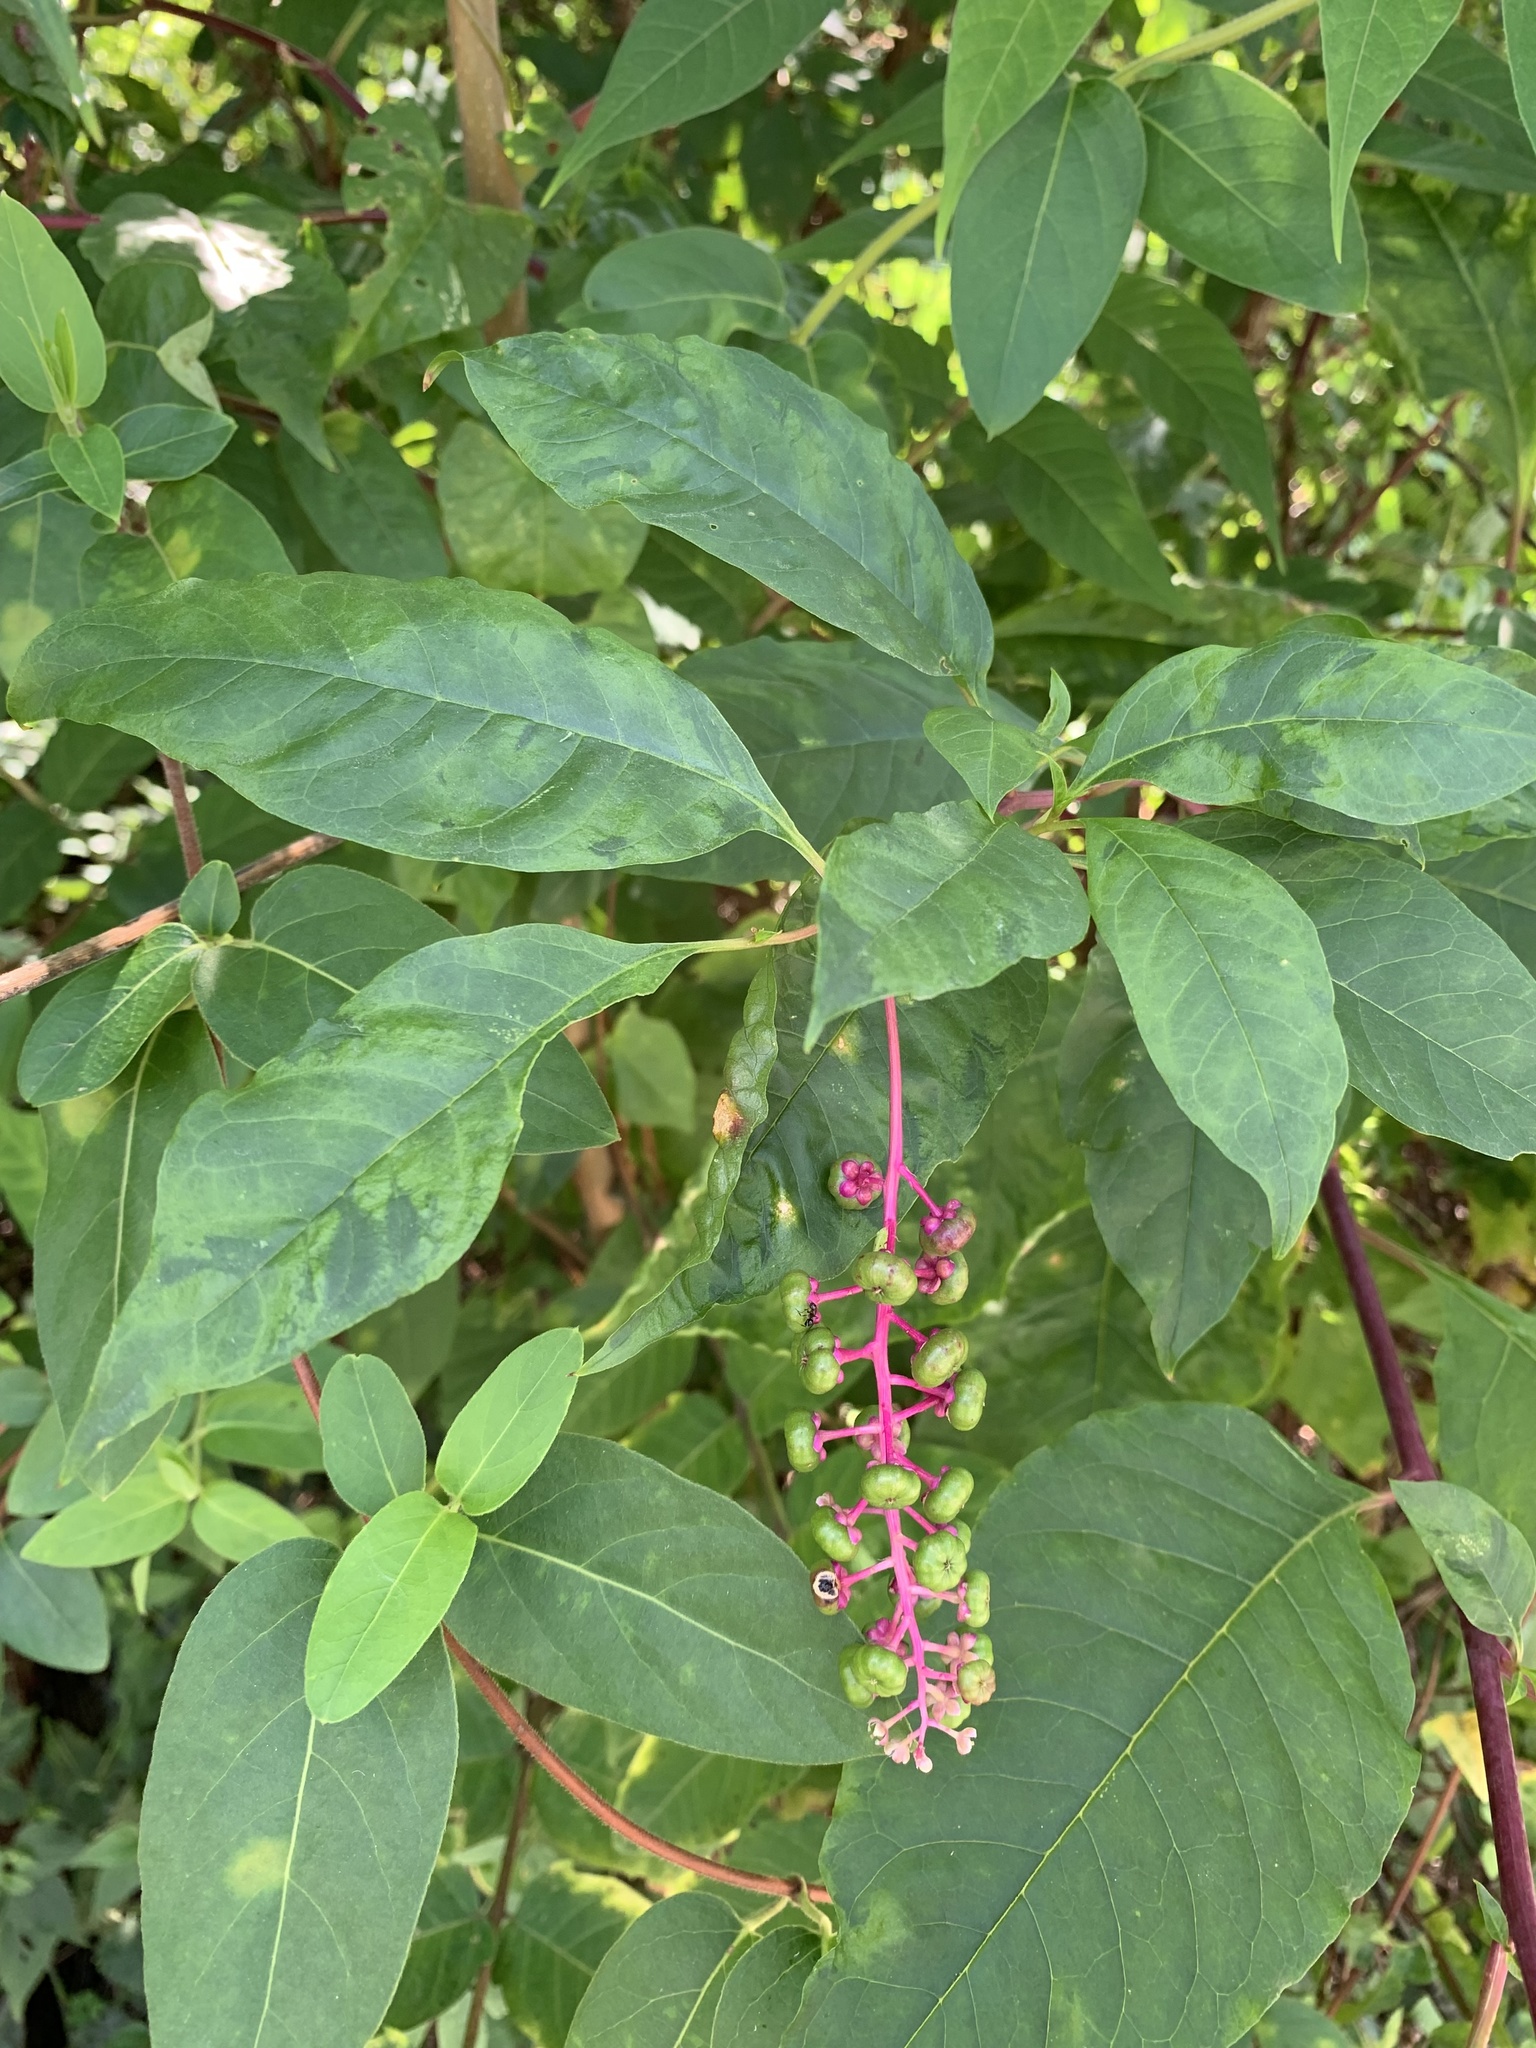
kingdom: Plantae
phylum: Tracheophyta
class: Magnoliopsida
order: Caryophyllales
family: Phytolaccaceae
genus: Phytolacca
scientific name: Phytolacca americana
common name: American pokeweed
